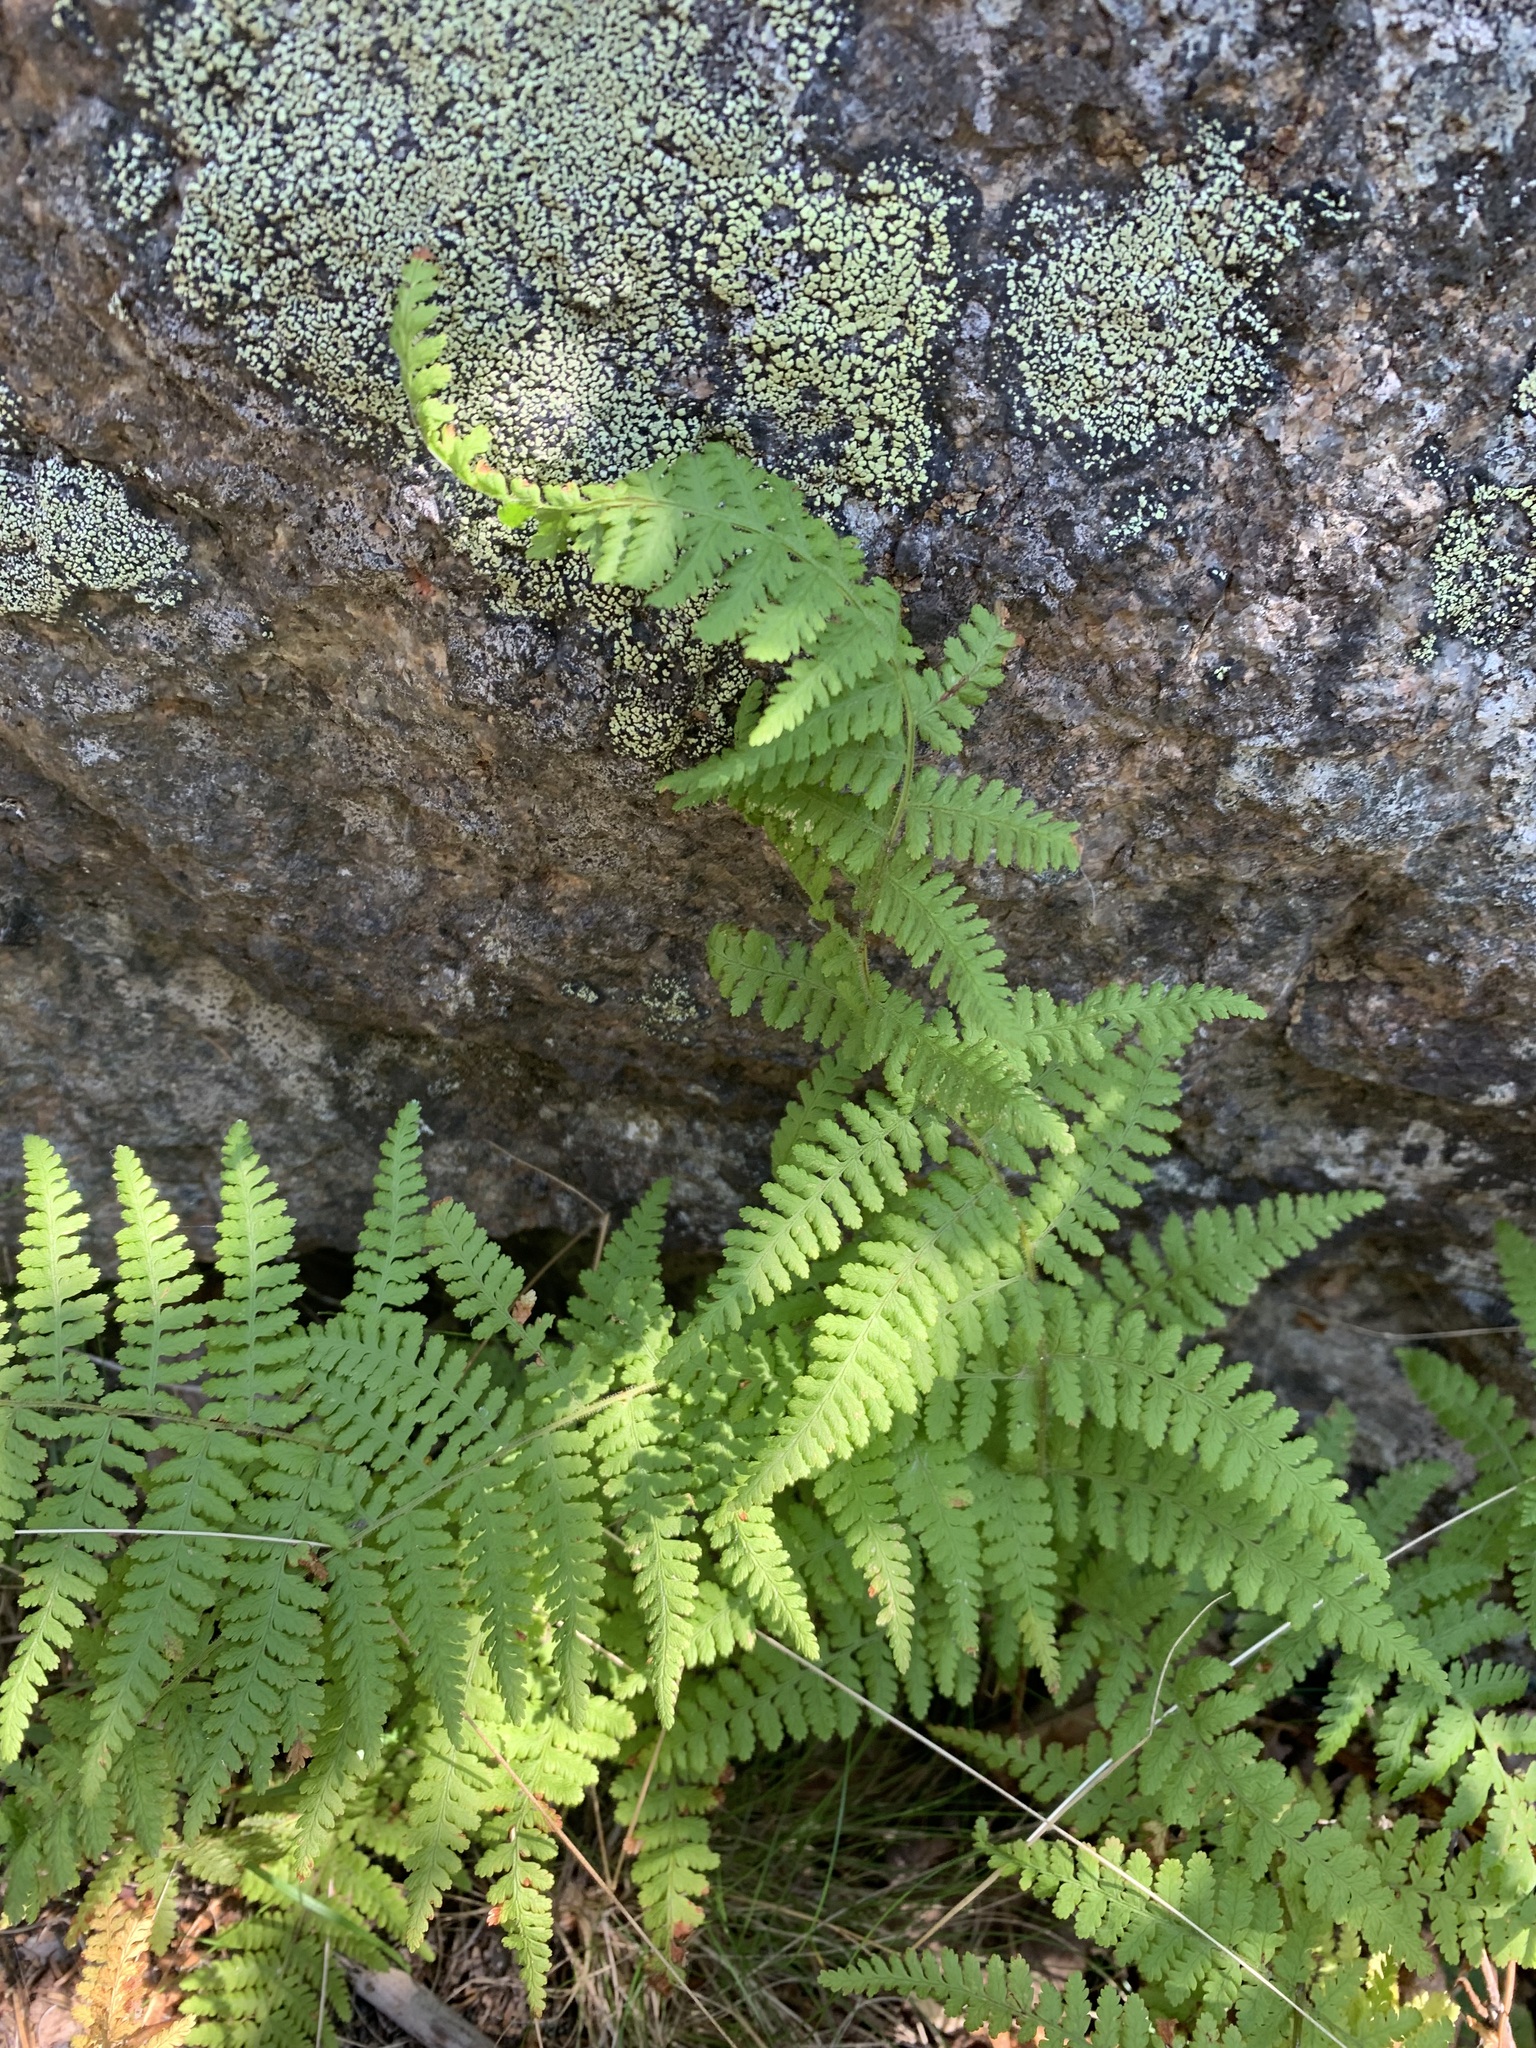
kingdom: Plantae
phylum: Tracheophyta
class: Polypodiopsida
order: Polypodiales
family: Dennstaedtiaceae
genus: Sitobolium
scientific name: Sitobolium punctilobum
